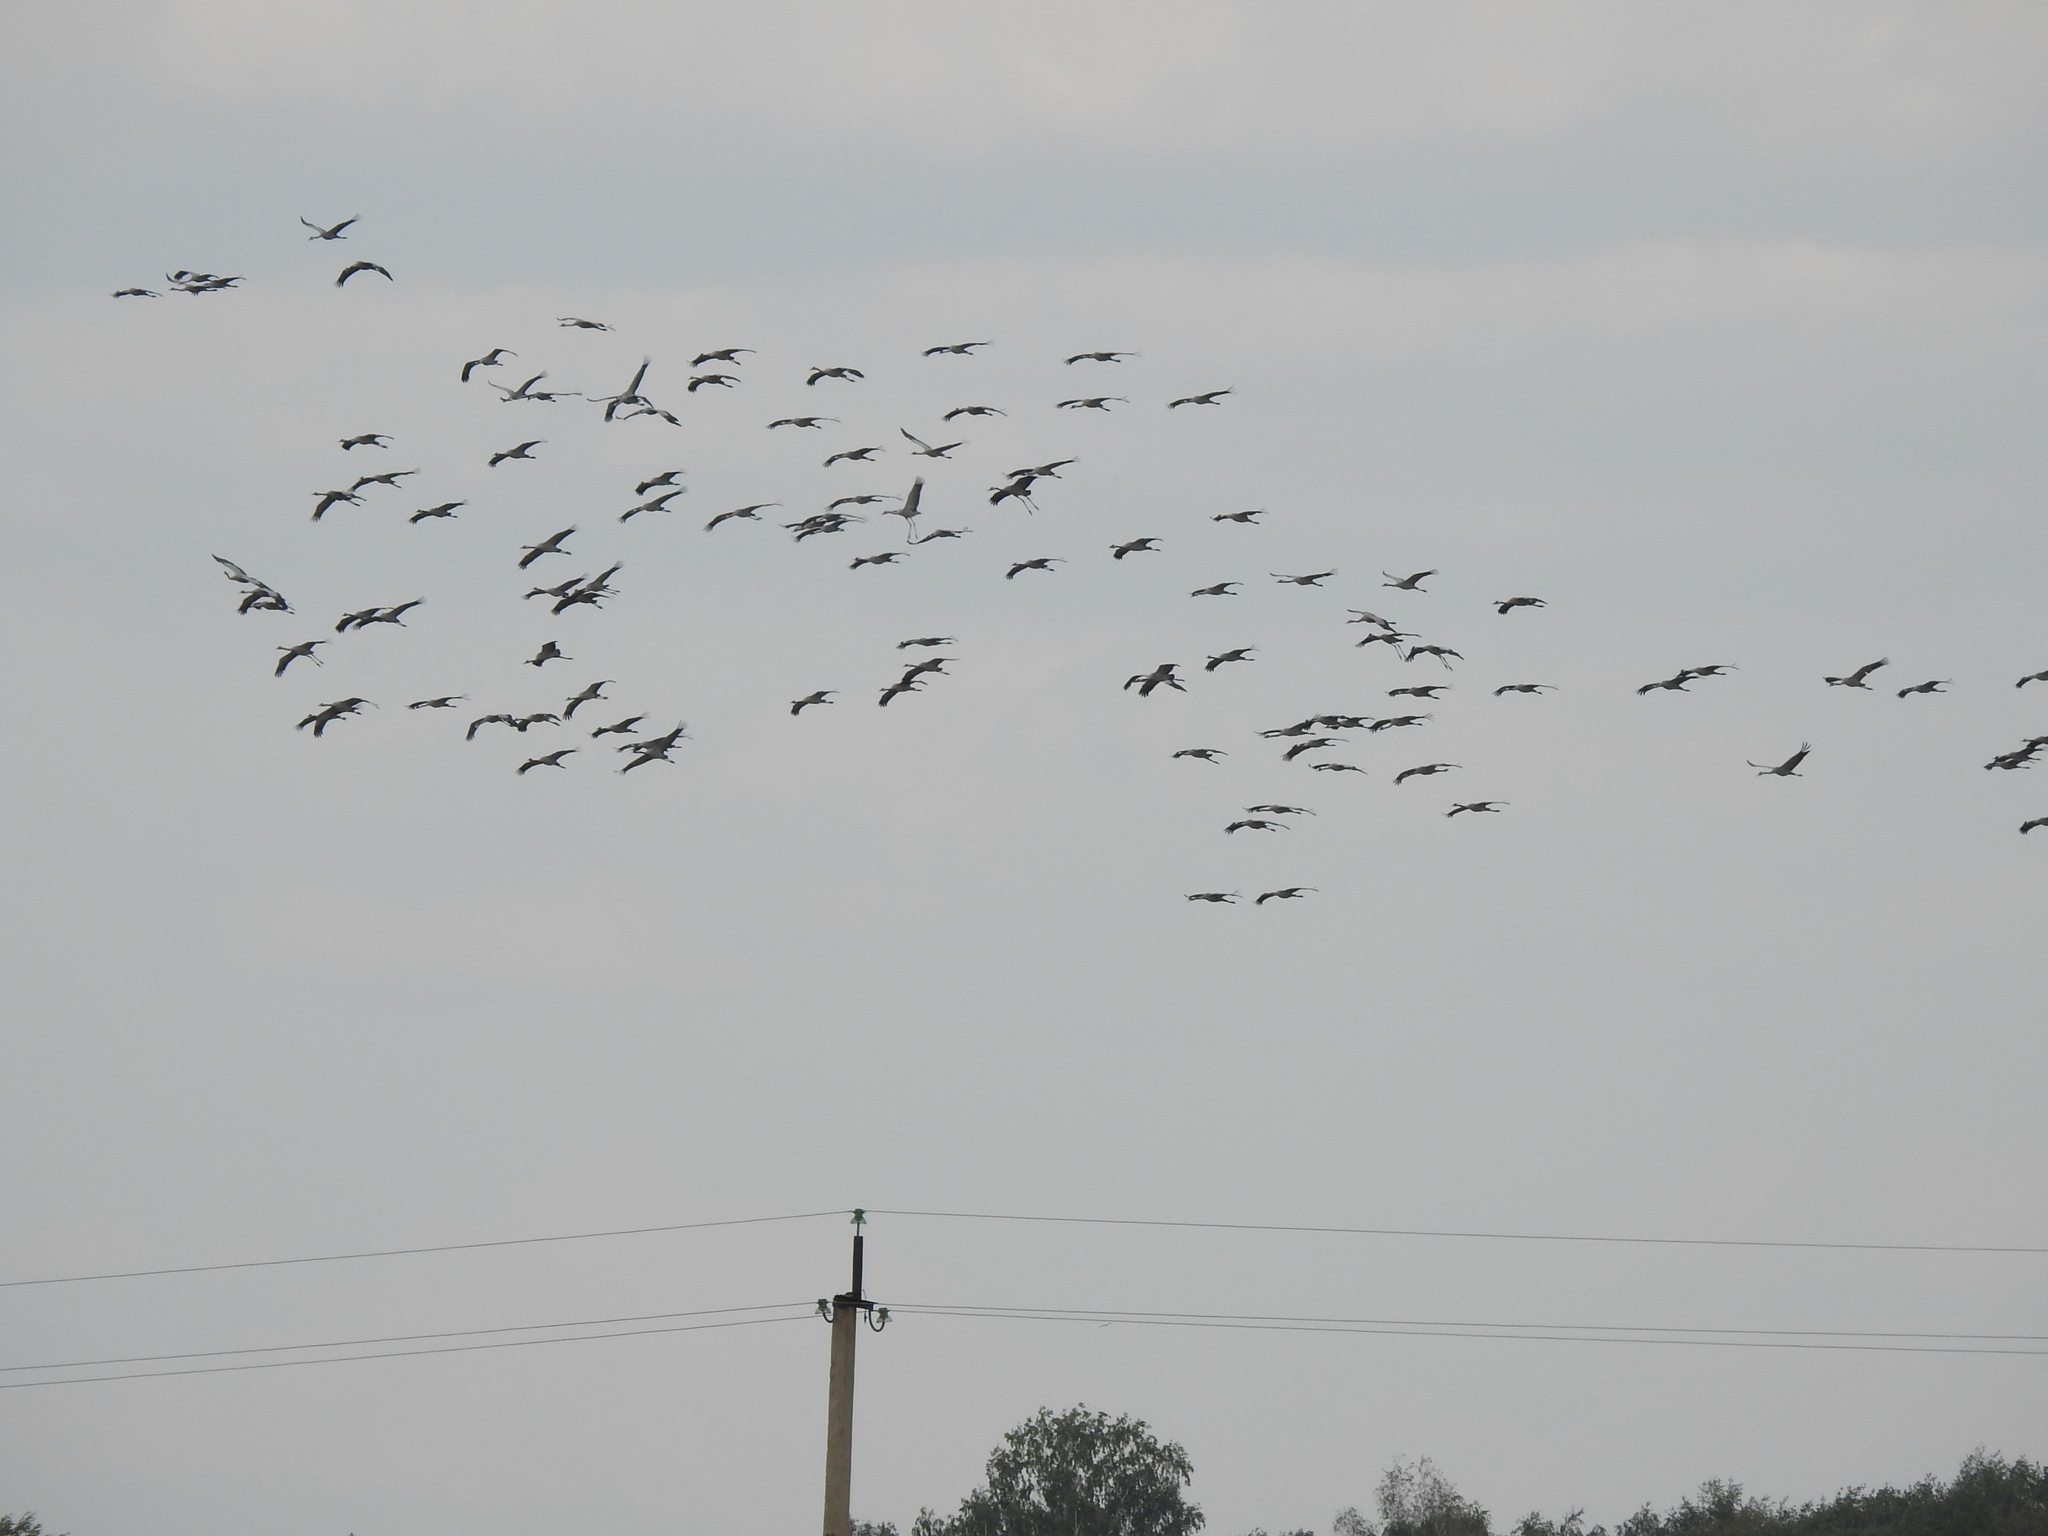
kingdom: Animalia
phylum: Chordata
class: Aves
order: Gruiformes
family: Gruidae
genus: Grus
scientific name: Grus grus
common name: Common crane
